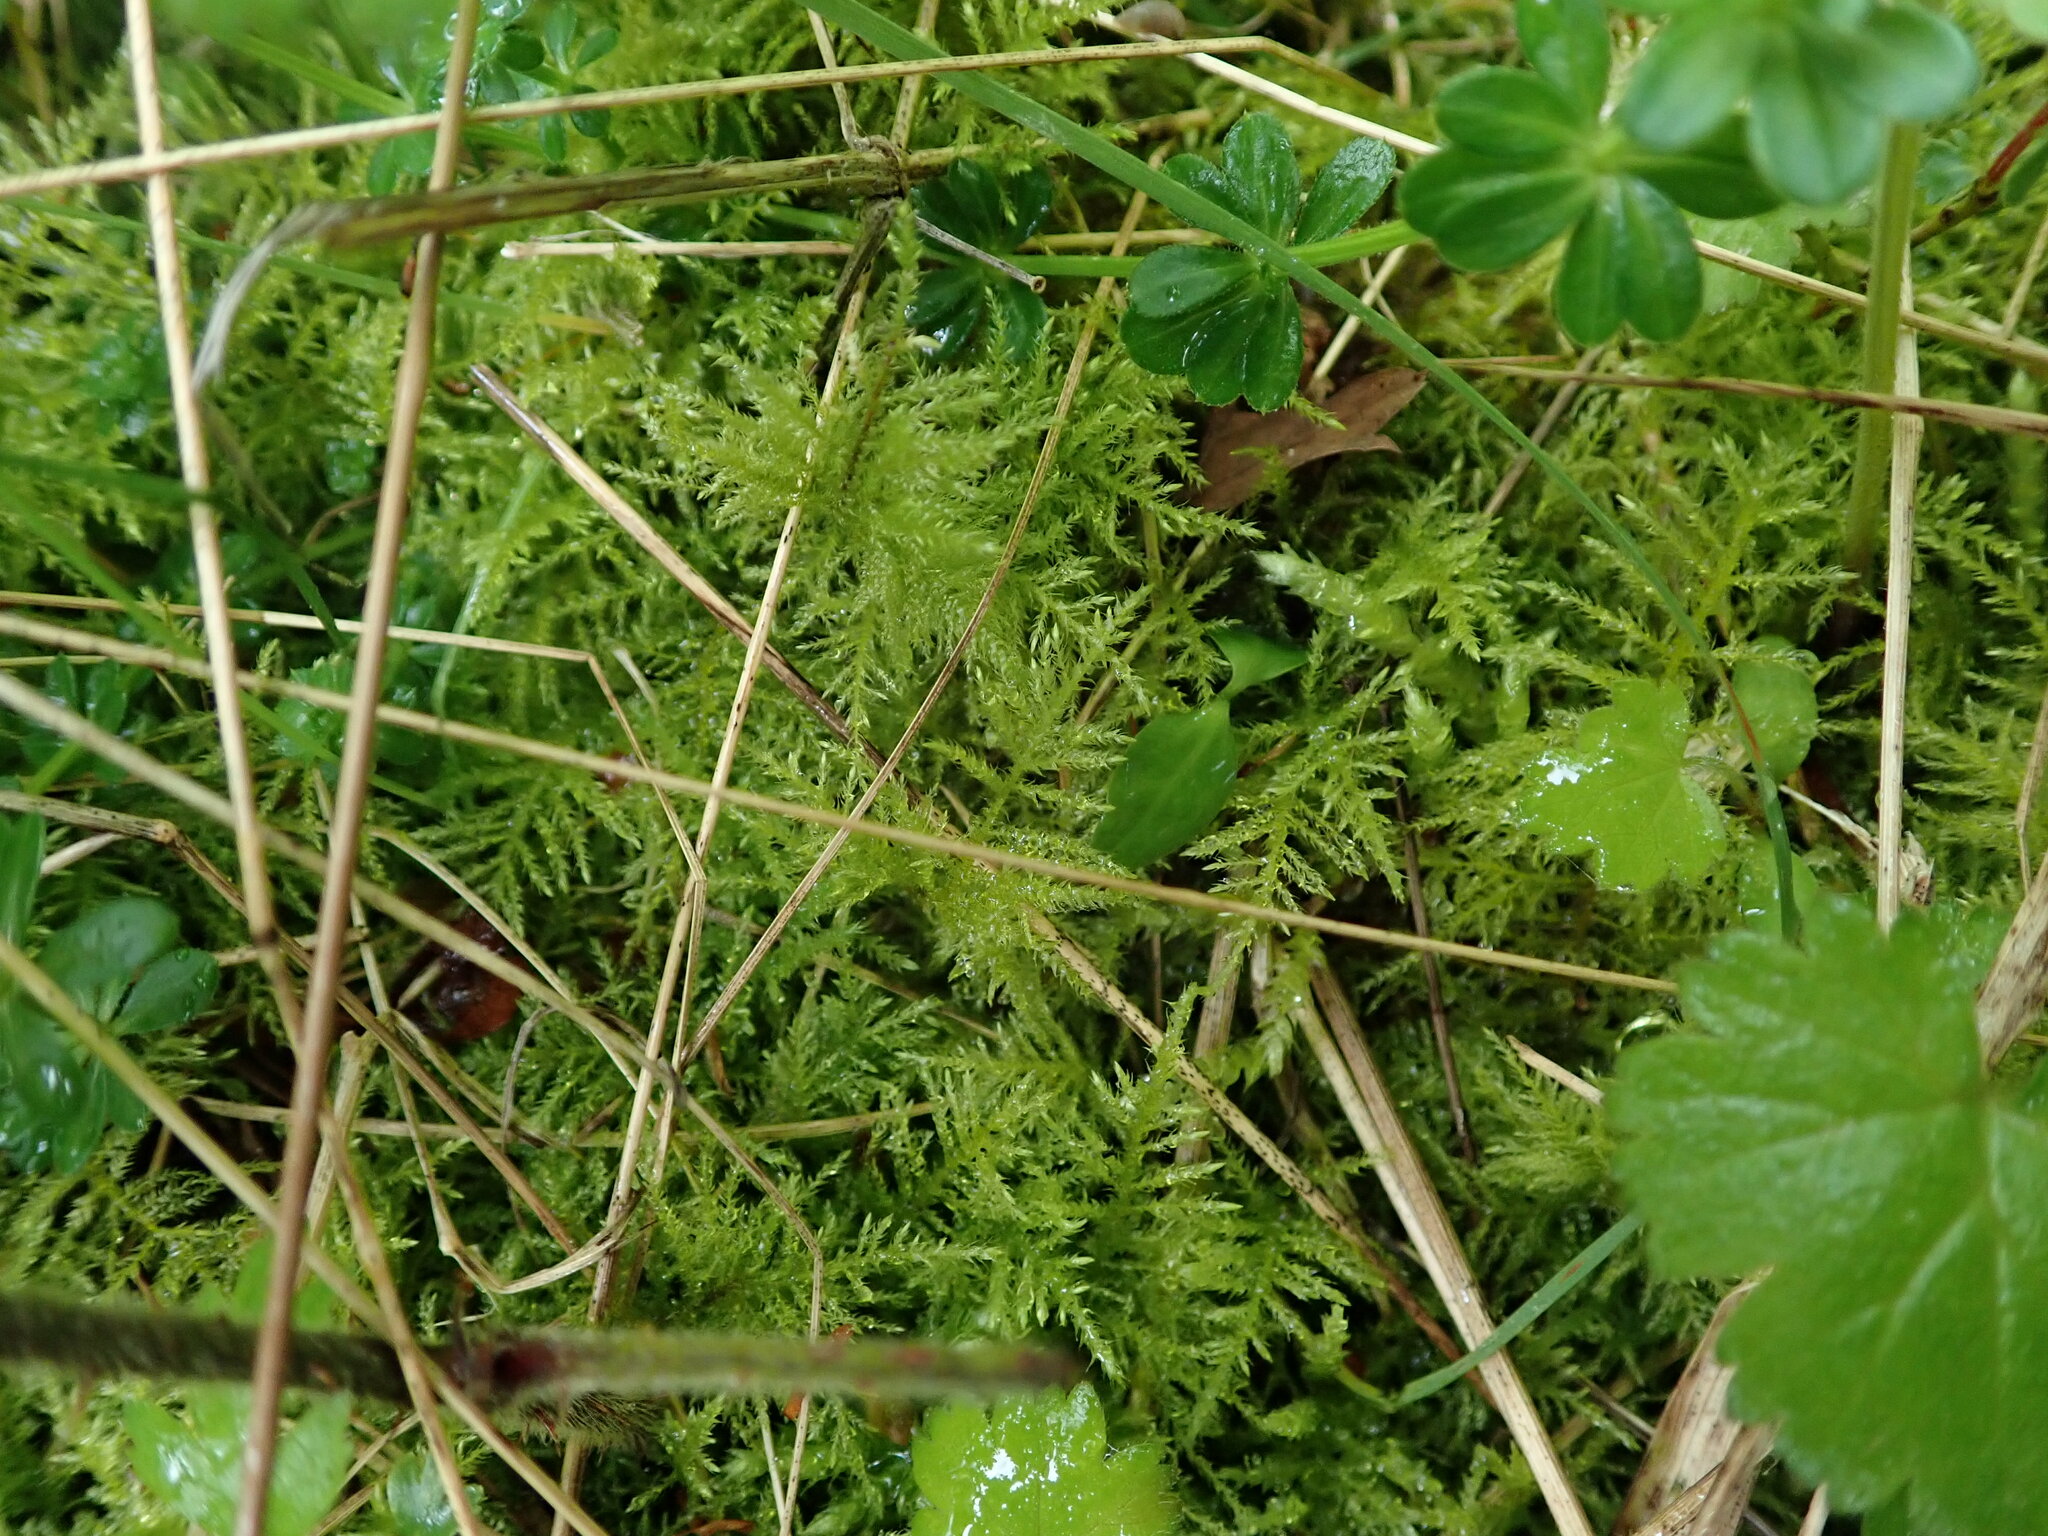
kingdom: Plantae
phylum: Bryophyta
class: Bryopsida
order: Hypnales
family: Brachytheciaceae
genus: Kindbergia
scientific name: Kindbergia praelonga
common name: Slender beaked moss
